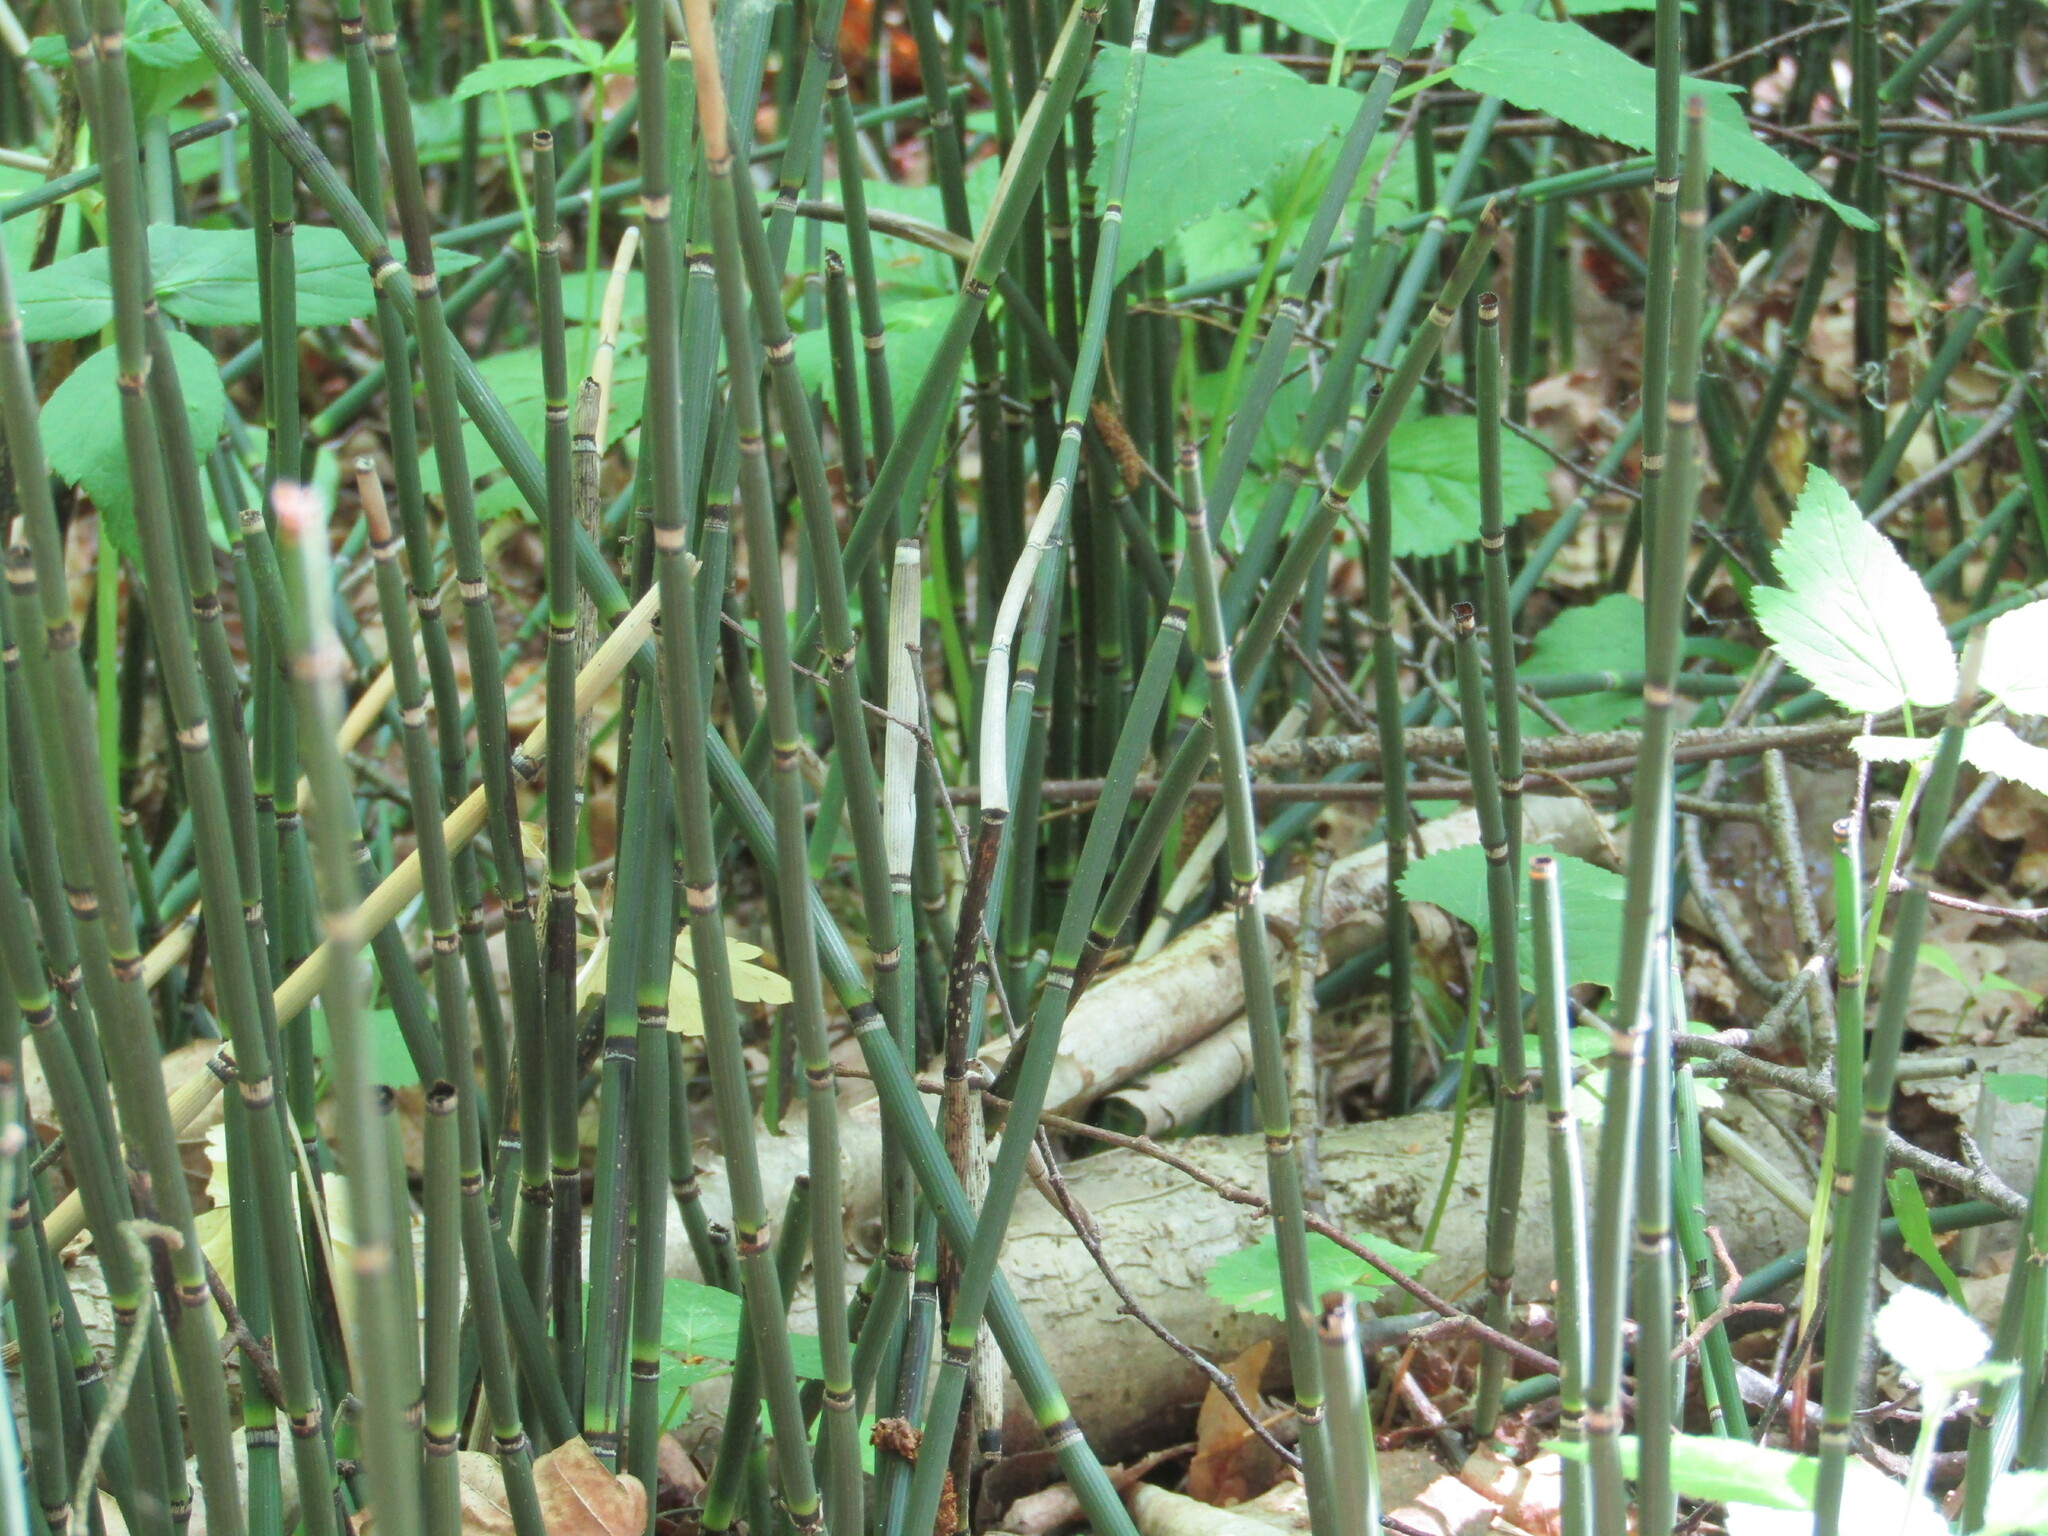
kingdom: Plantae
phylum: Tracheophyta
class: Polypodiopsida
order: Equisetales
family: Equisetaceae
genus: Equisetum
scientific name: Equisetum hyemale
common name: Rough horsetail
